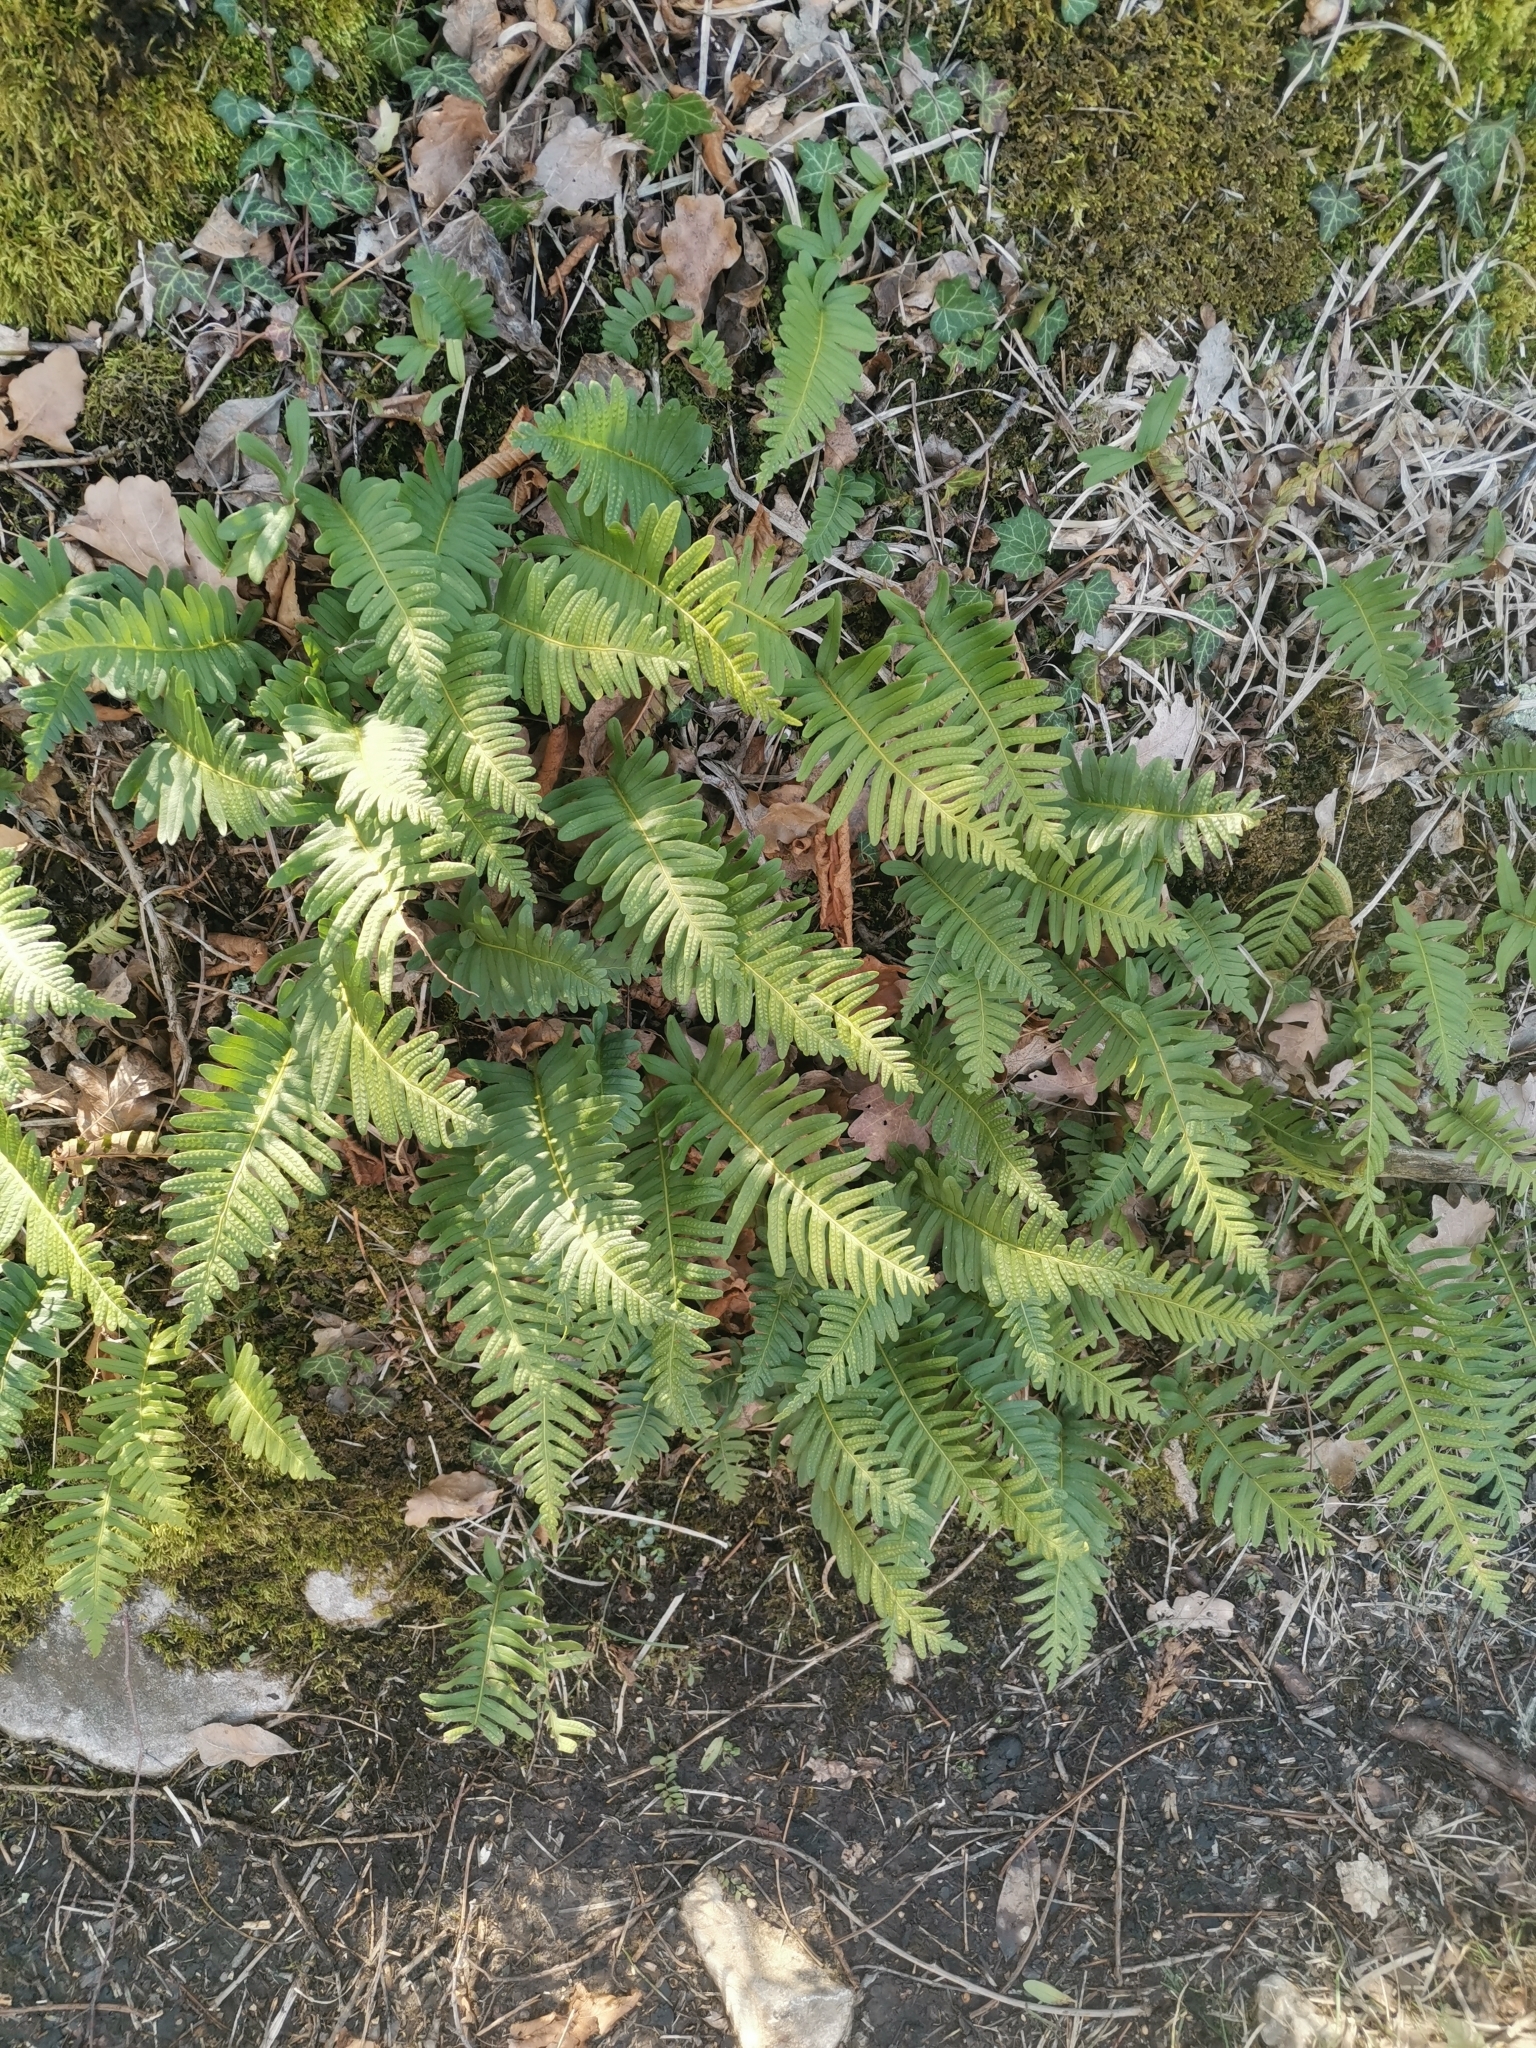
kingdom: Plantae
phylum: Tracheophyta
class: Polypodiopsida
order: Polypodiales
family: Polypodiaceae
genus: Polypodium
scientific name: Polypodium vulgare
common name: Common polypody
